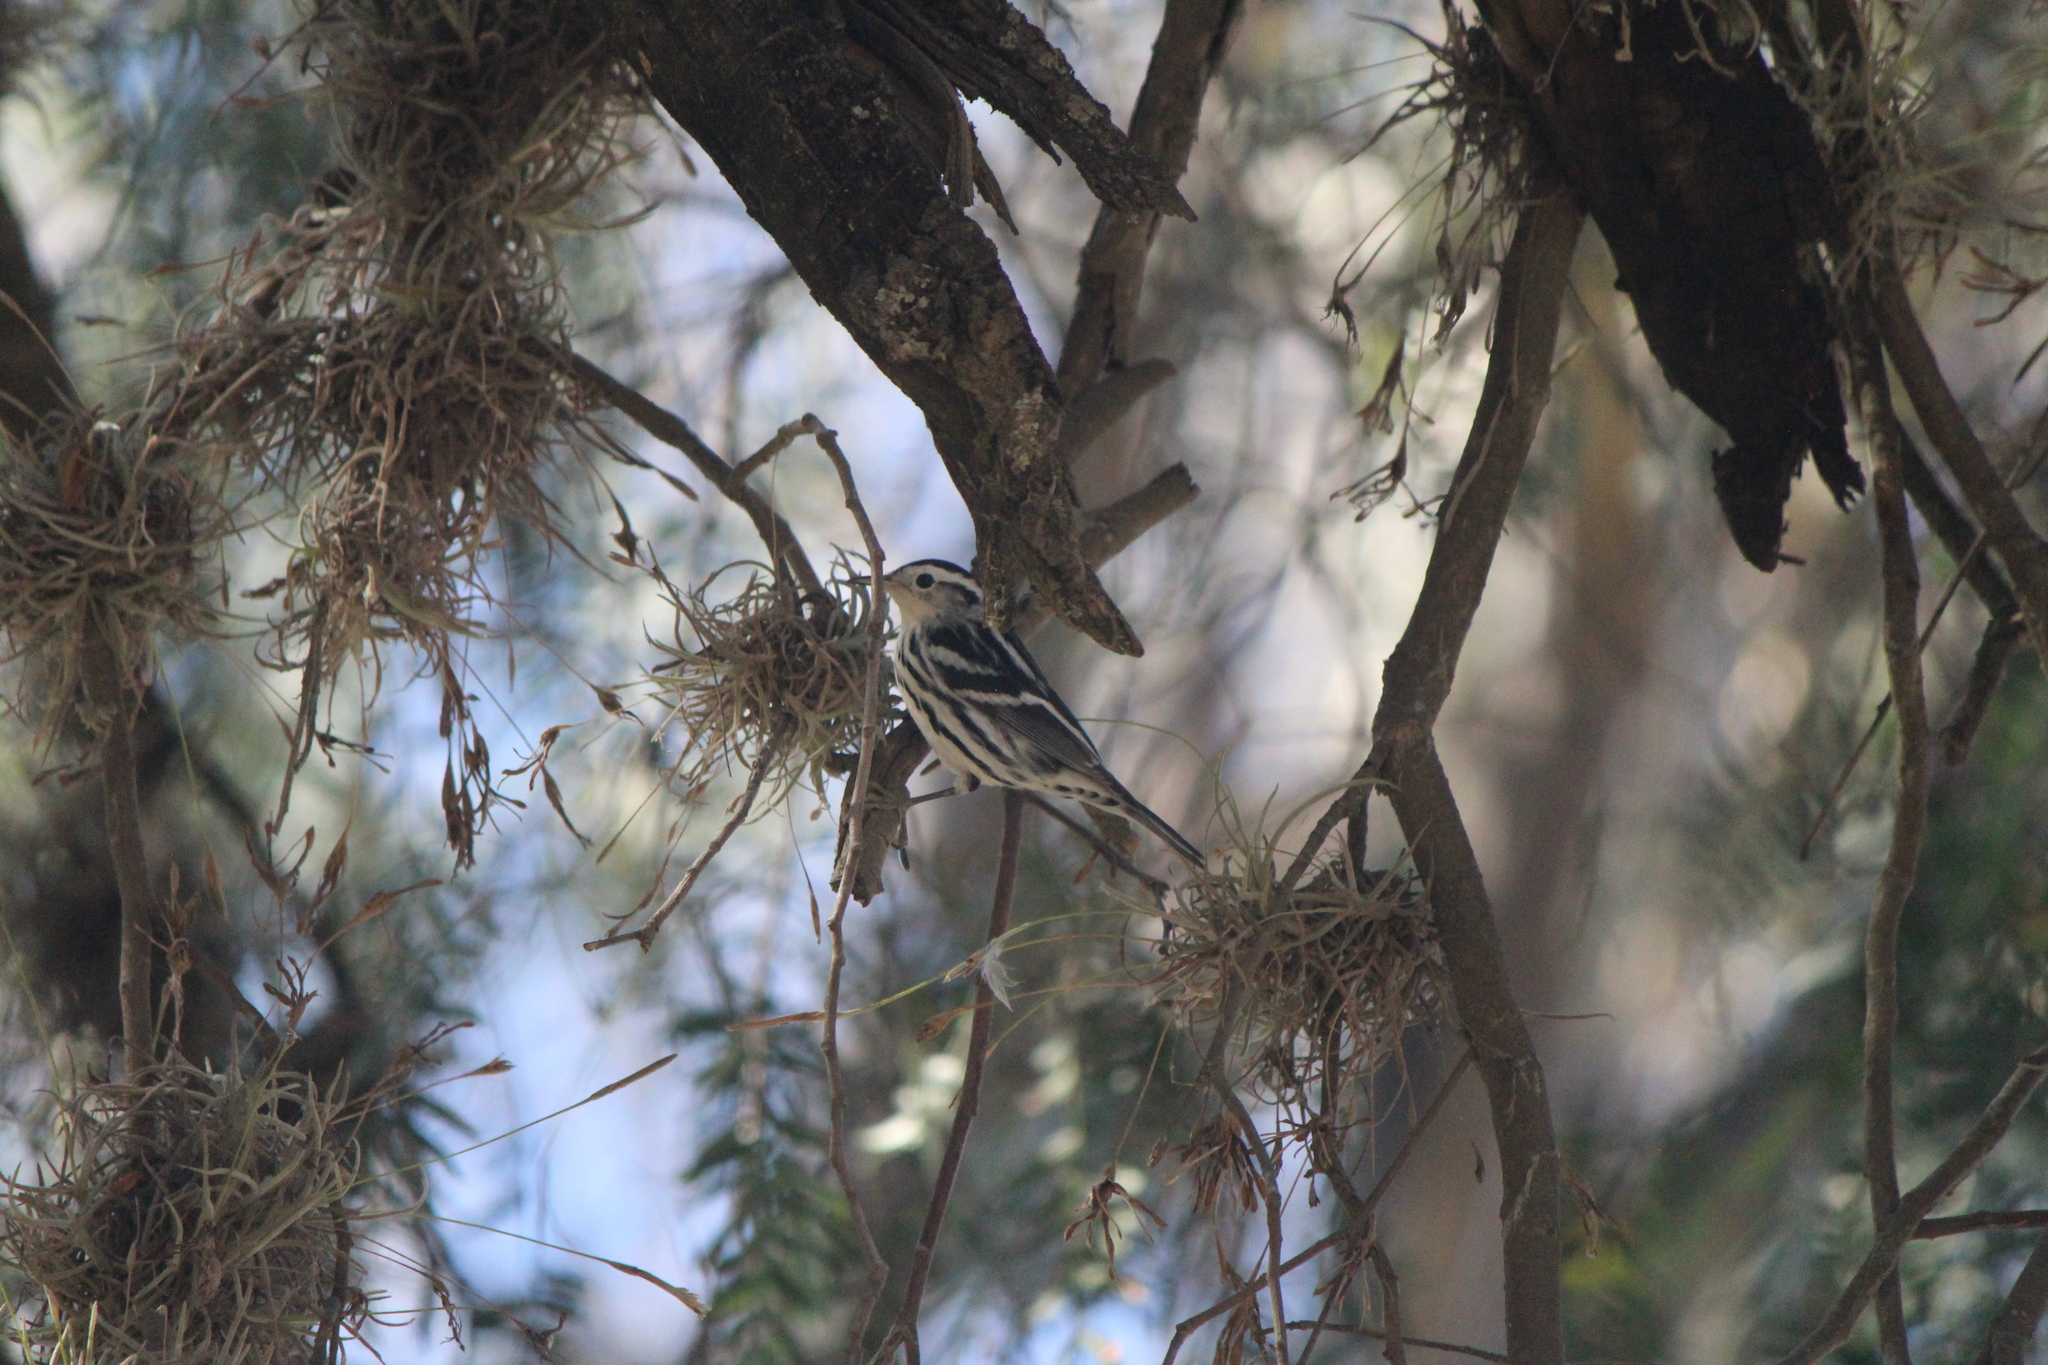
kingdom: Animalia
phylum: Chordata
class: Aves
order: Passeriformes
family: Parulidae
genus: Mniotilta
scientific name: Mniotilta varia
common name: Black-and-white warbler
